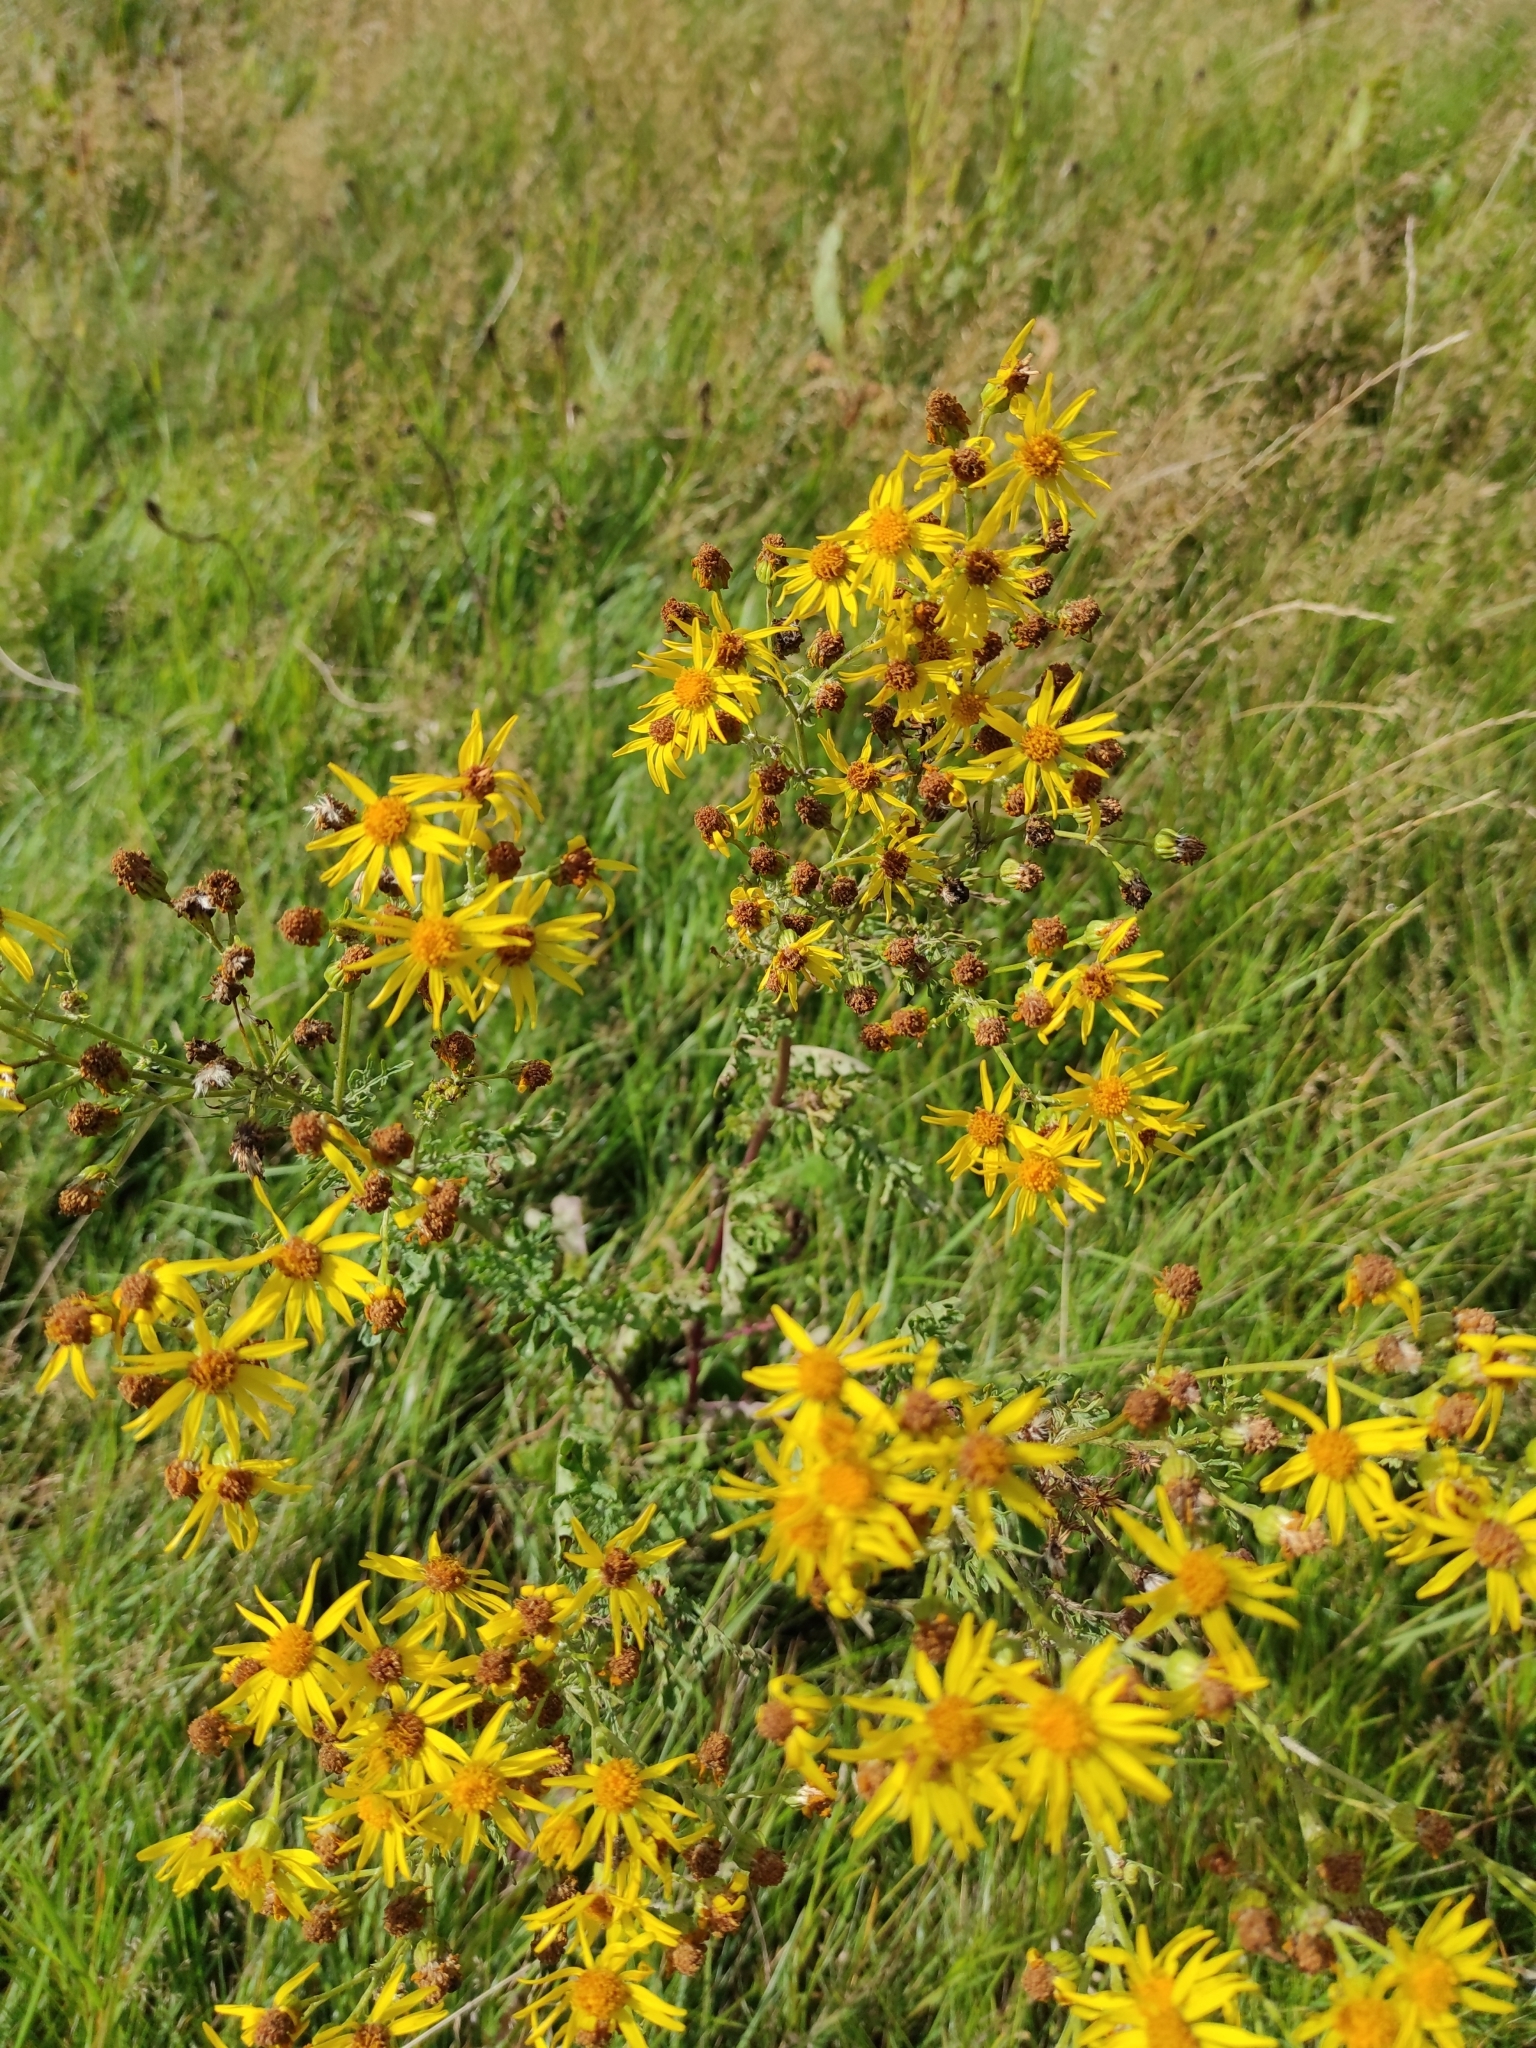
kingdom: Plantae
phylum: Tracheophyta
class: Magnoliopsida
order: Asterales
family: Asteraceae
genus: Jacobaea
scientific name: Jacobaea vulgaris
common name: Stinking willie
